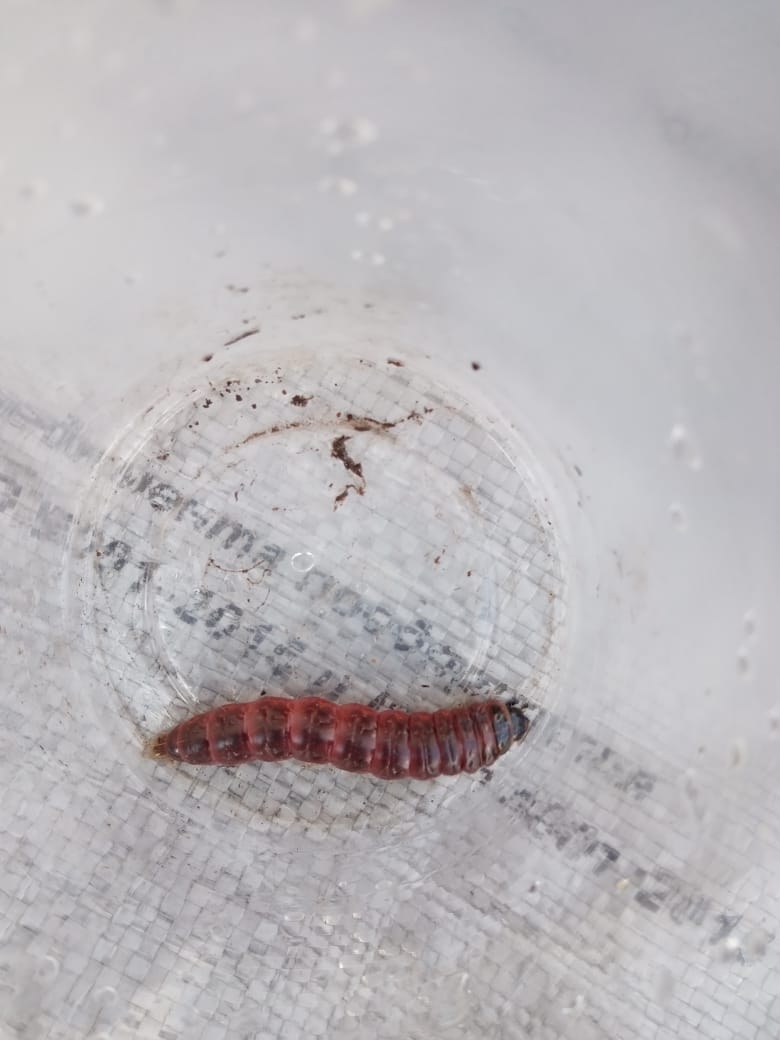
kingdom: Animalia
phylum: Arthropoda
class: Insecta
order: Lepidoptera
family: Cossidae
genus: Cossus
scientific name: Cossus cossus
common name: Goat moth
